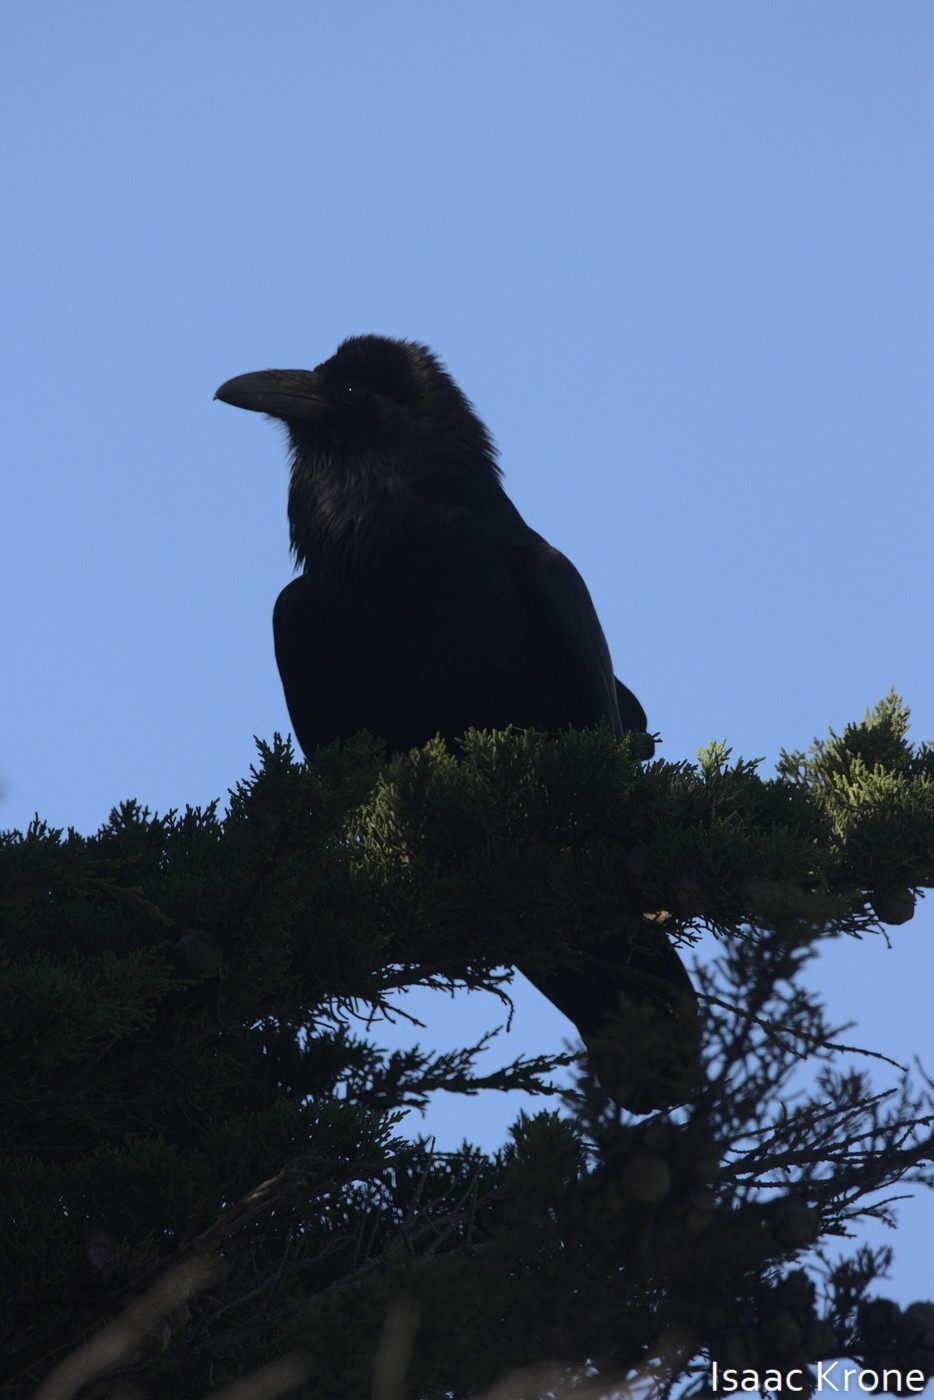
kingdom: Animalia
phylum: Chordata
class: Aves
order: Passeriformes
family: Corvidae
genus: Corvus
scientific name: Corvus corax
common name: Common raven
